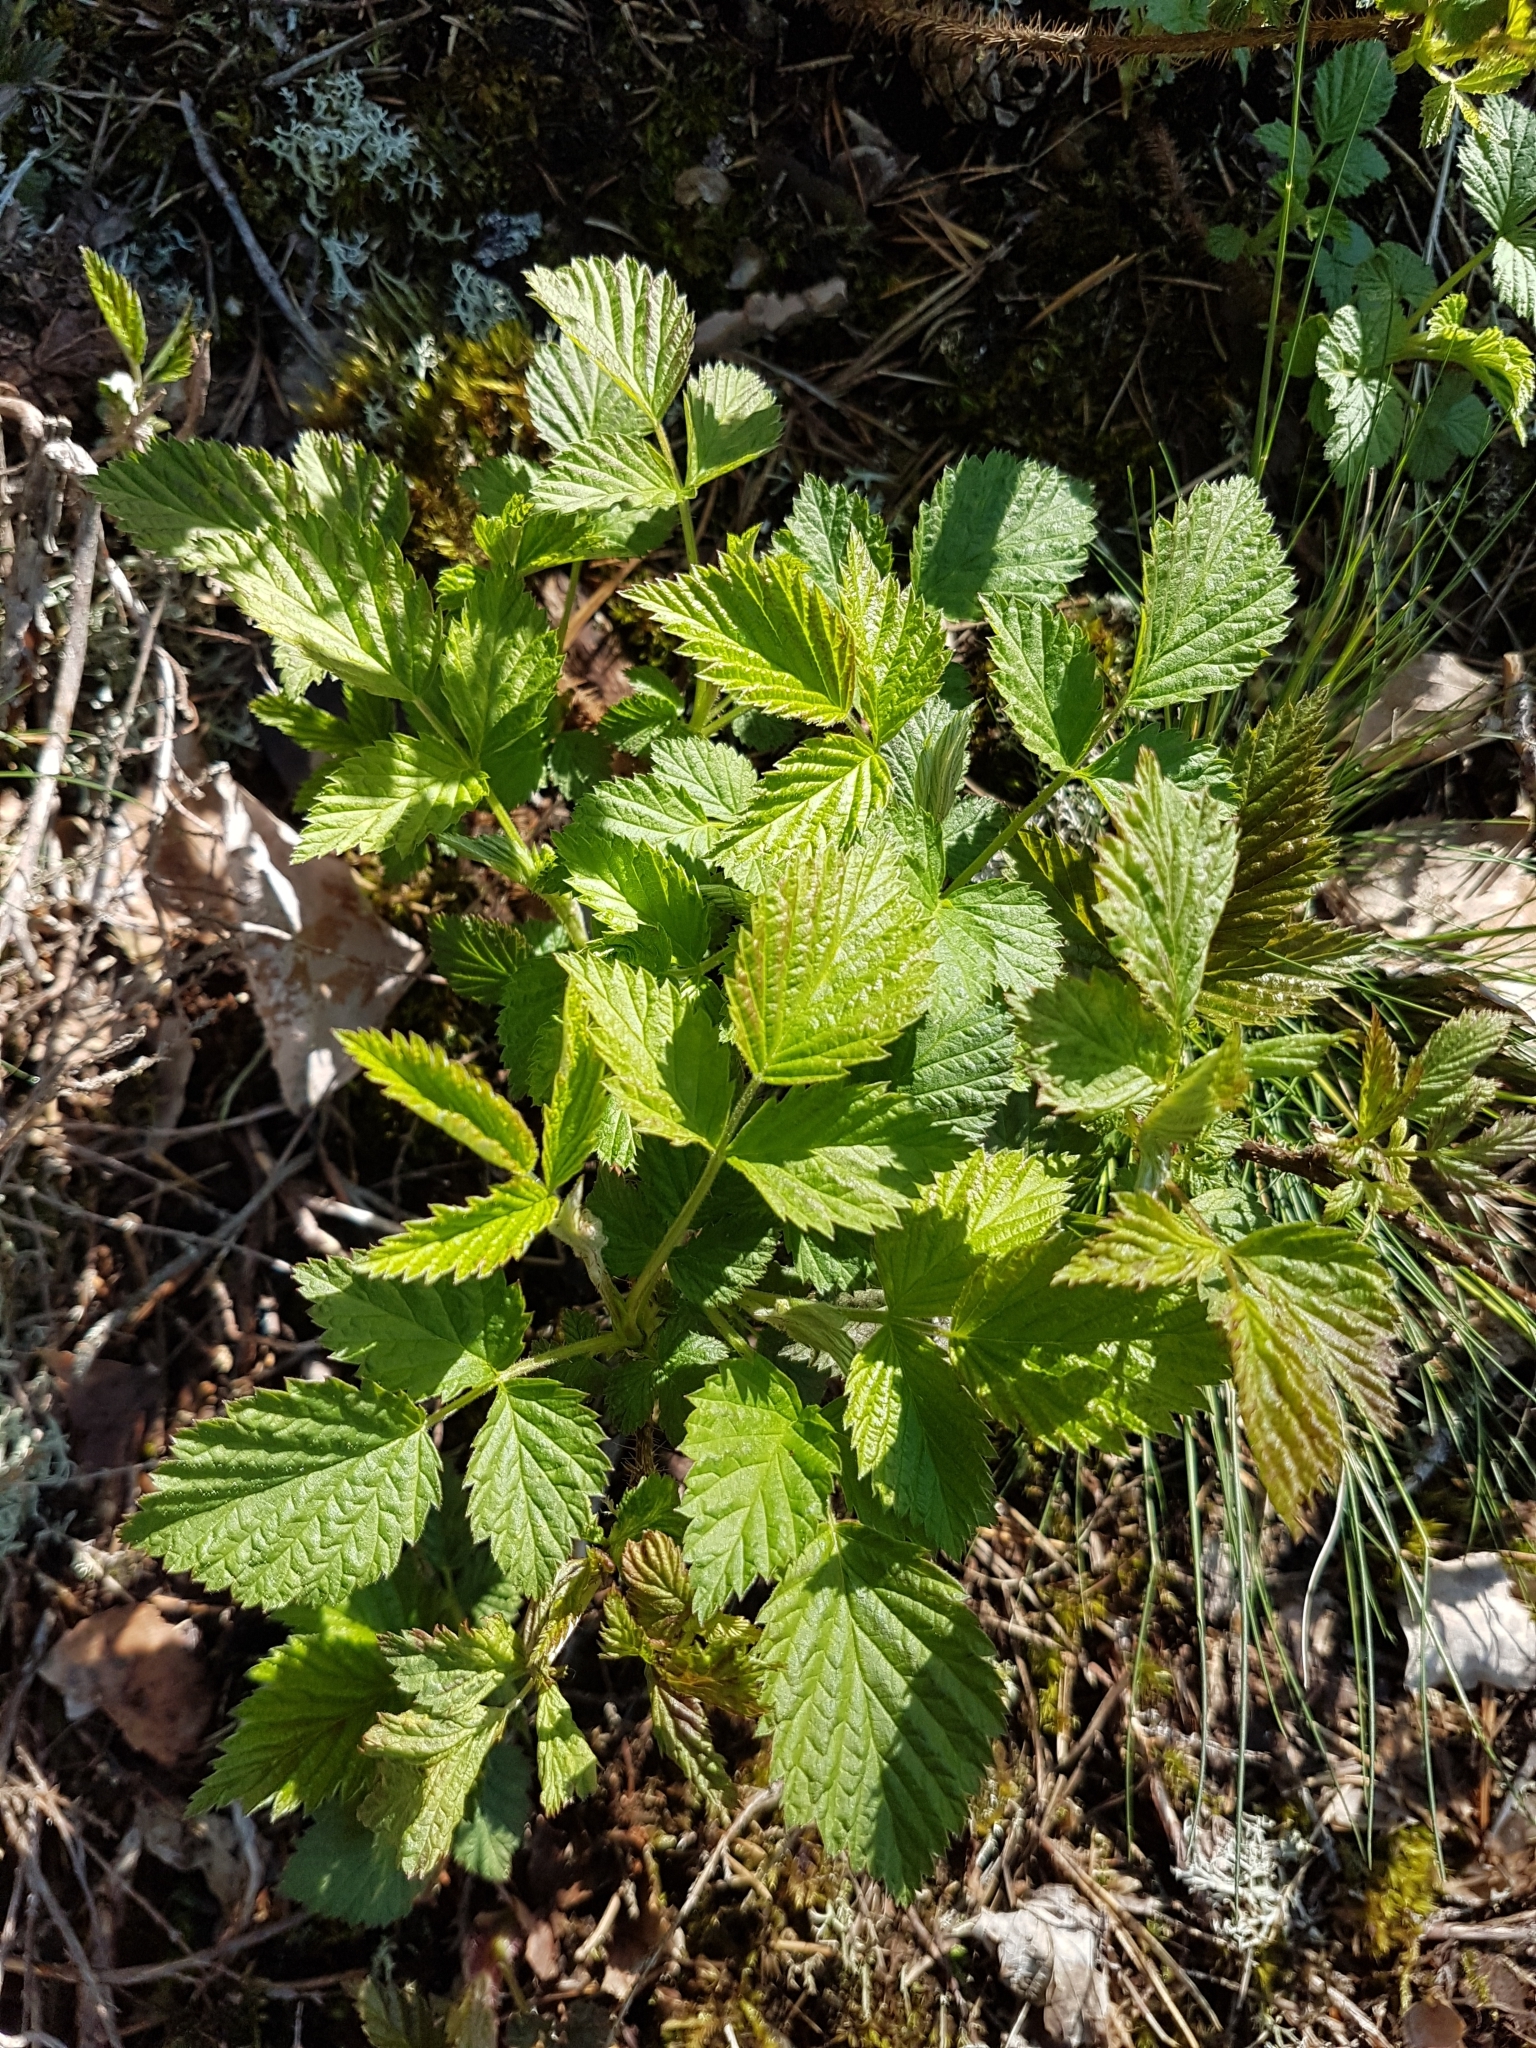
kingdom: Plantae
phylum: Tracheophyta
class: Magnoliopsida
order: Rosales
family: Rosaceae
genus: Rubus
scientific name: Rubus idaeus
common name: Raspberry
